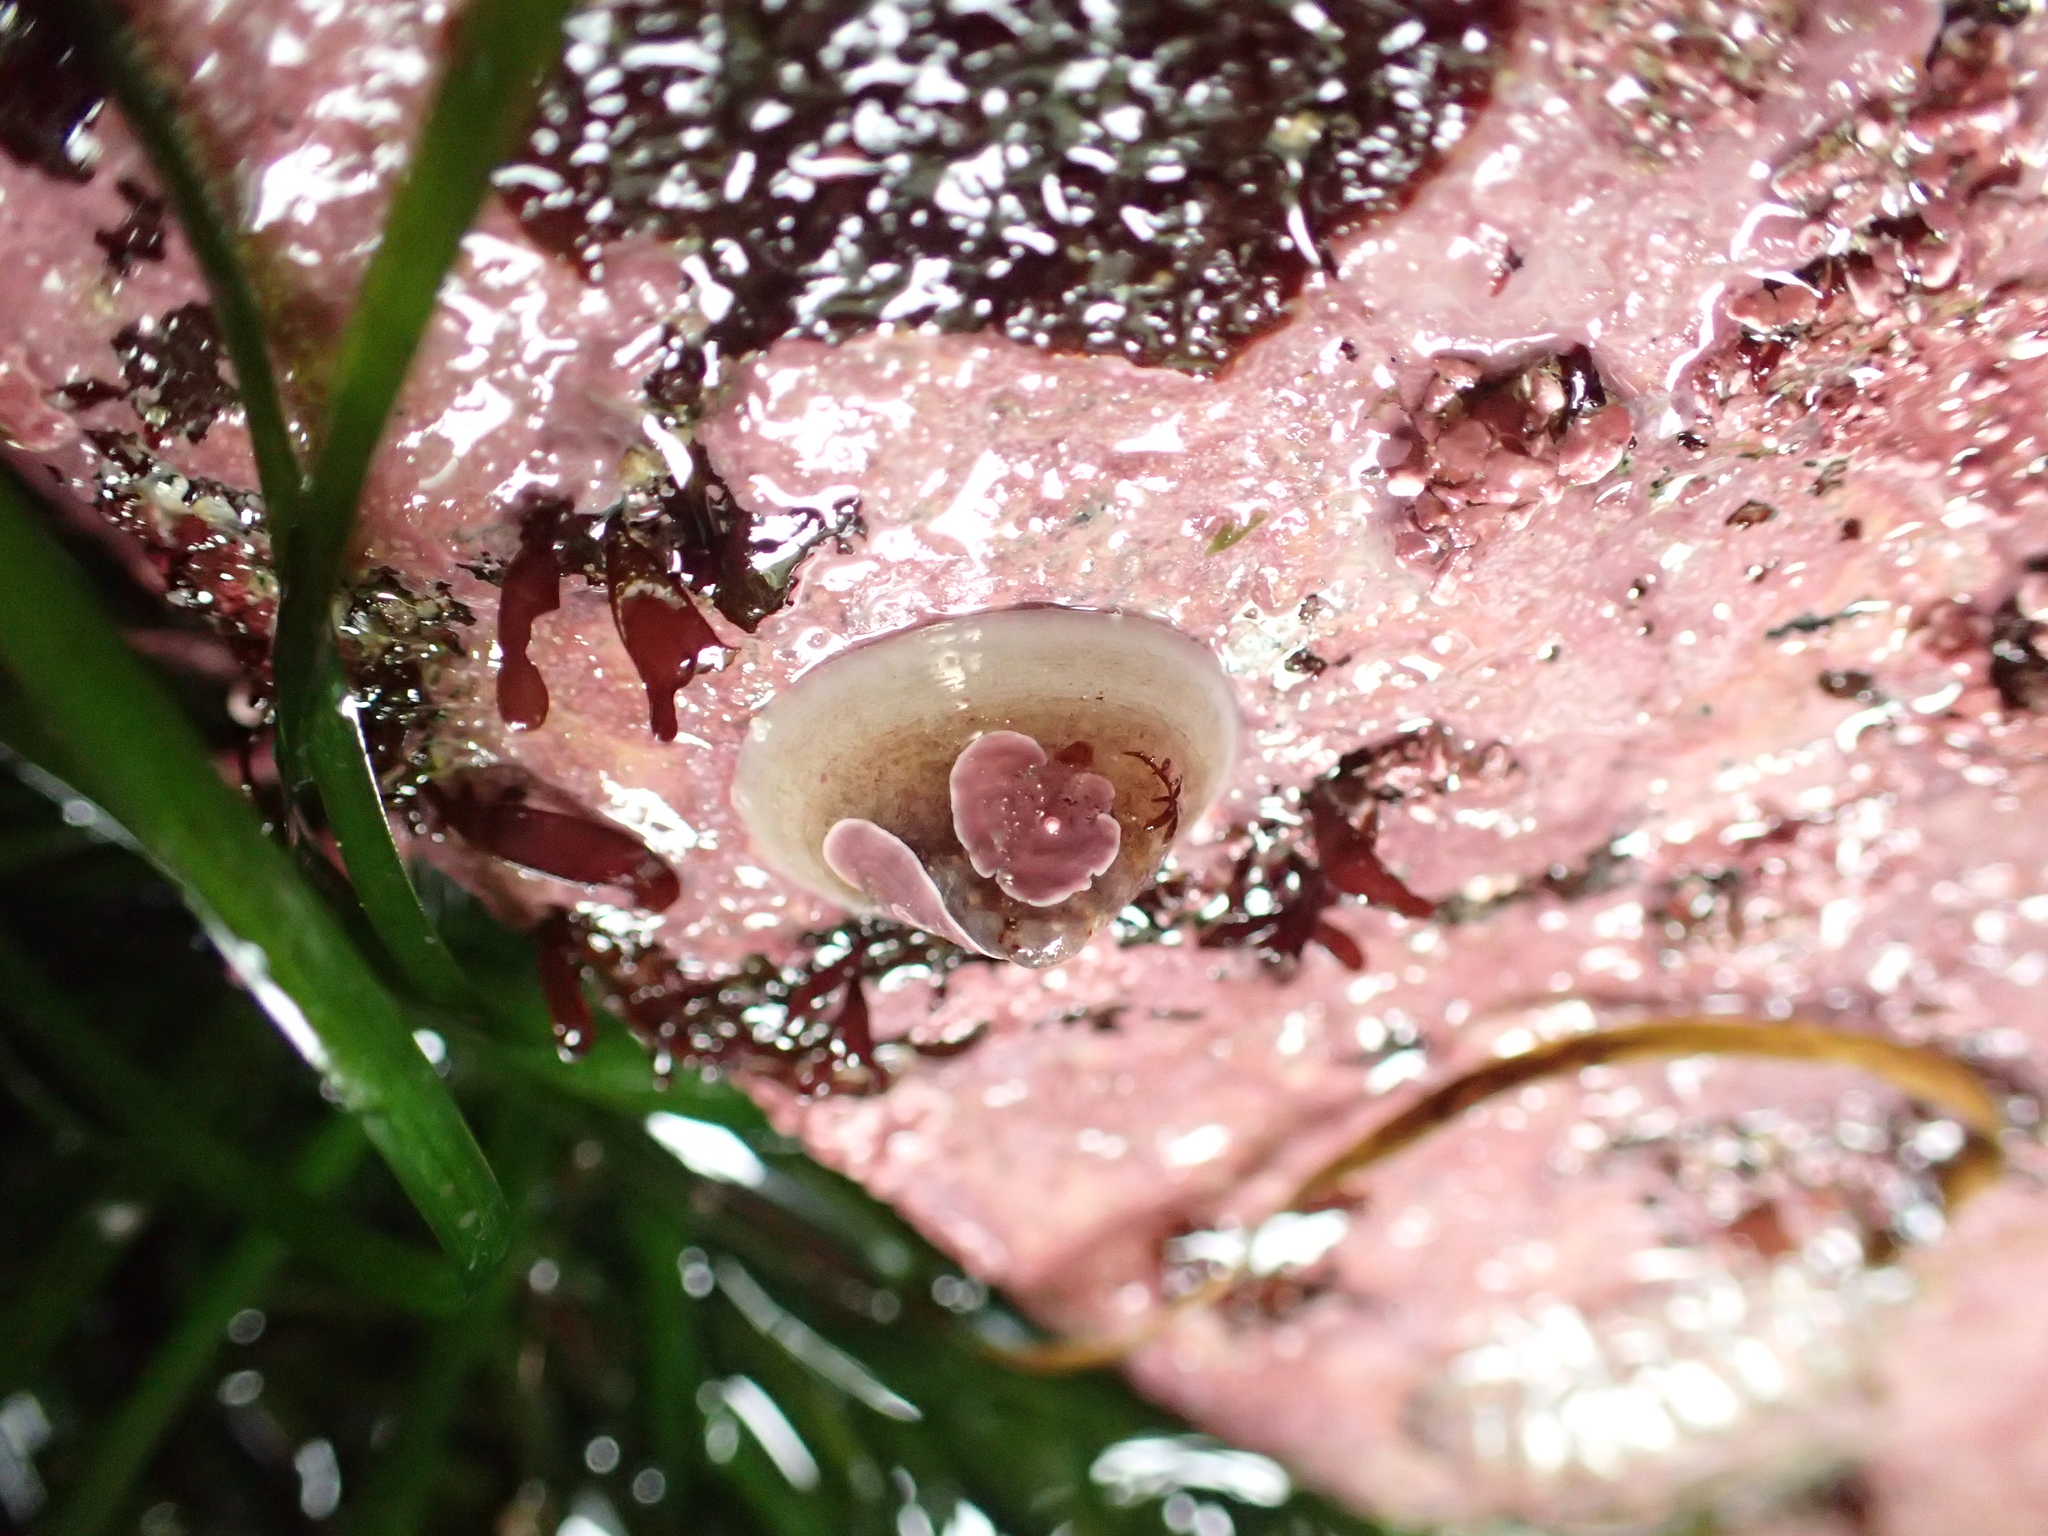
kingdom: Animalia
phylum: Mollusca
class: Gastropoda
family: Acmaeidae
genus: Acmaea
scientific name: Acmaea mitra
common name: Pacific white cap limpet
